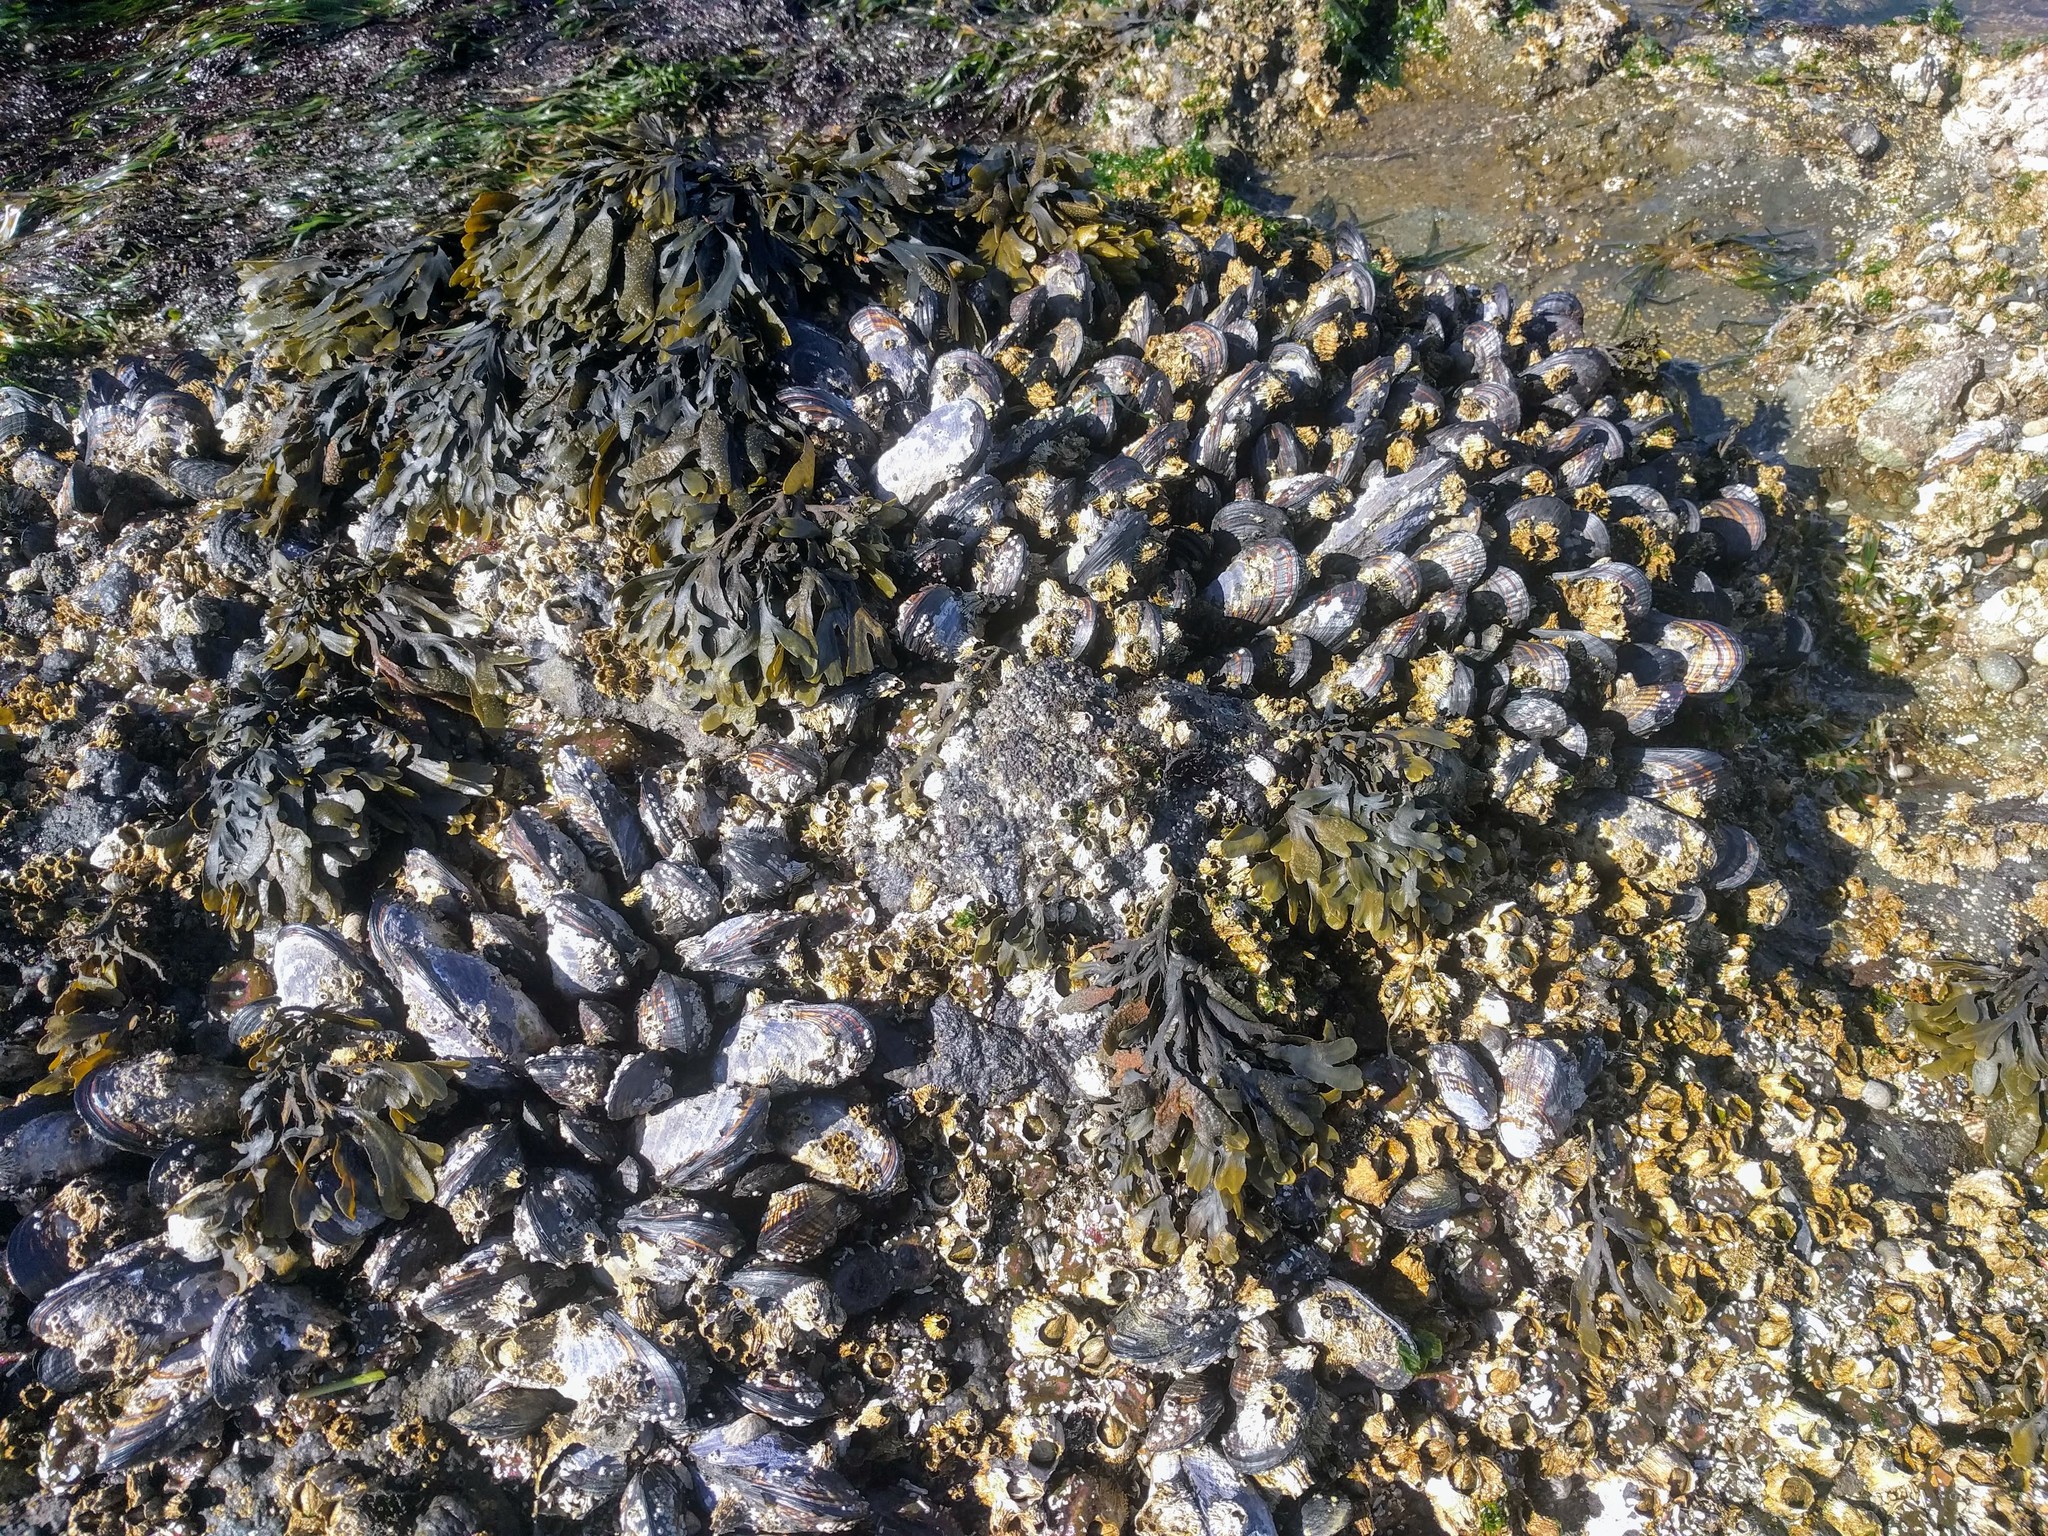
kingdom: Animalia
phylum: Mollusca
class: Bivalvia
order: Mytilida
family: Mytilidae
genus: Mytilus
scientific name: Mytilus californianus
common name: California mussel
